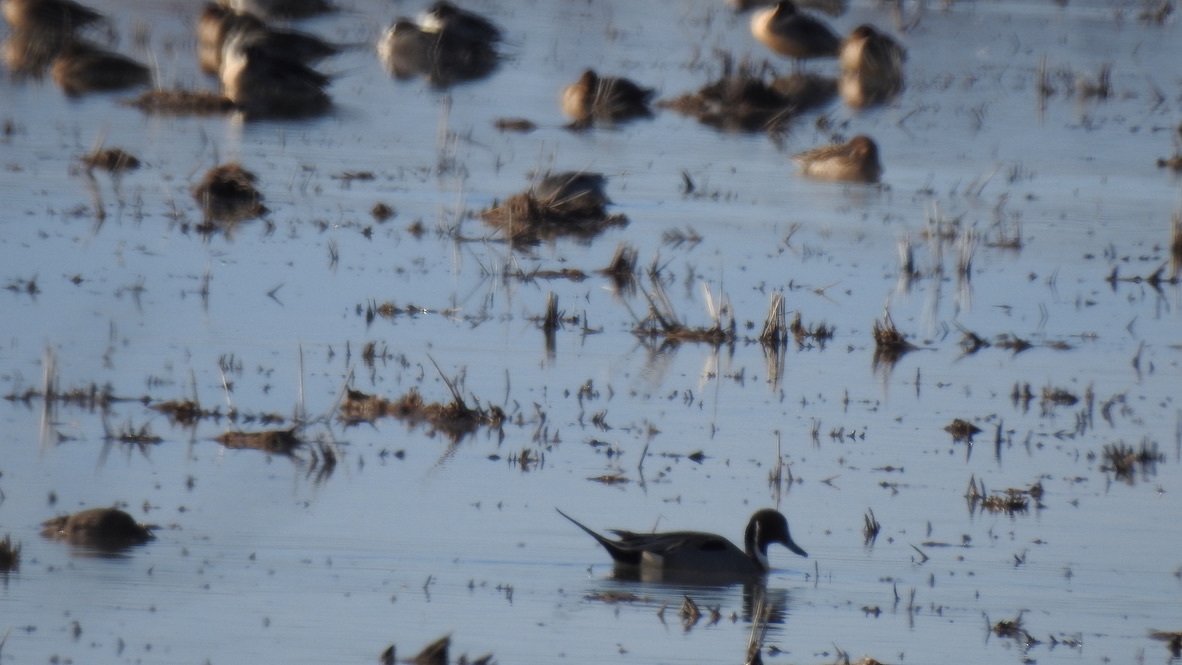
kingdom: Animalia
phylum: Chordata
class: Aves
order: Anseriformes
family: Anatidae
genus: Anas
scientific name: Anas acuta
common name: Northern pintail
